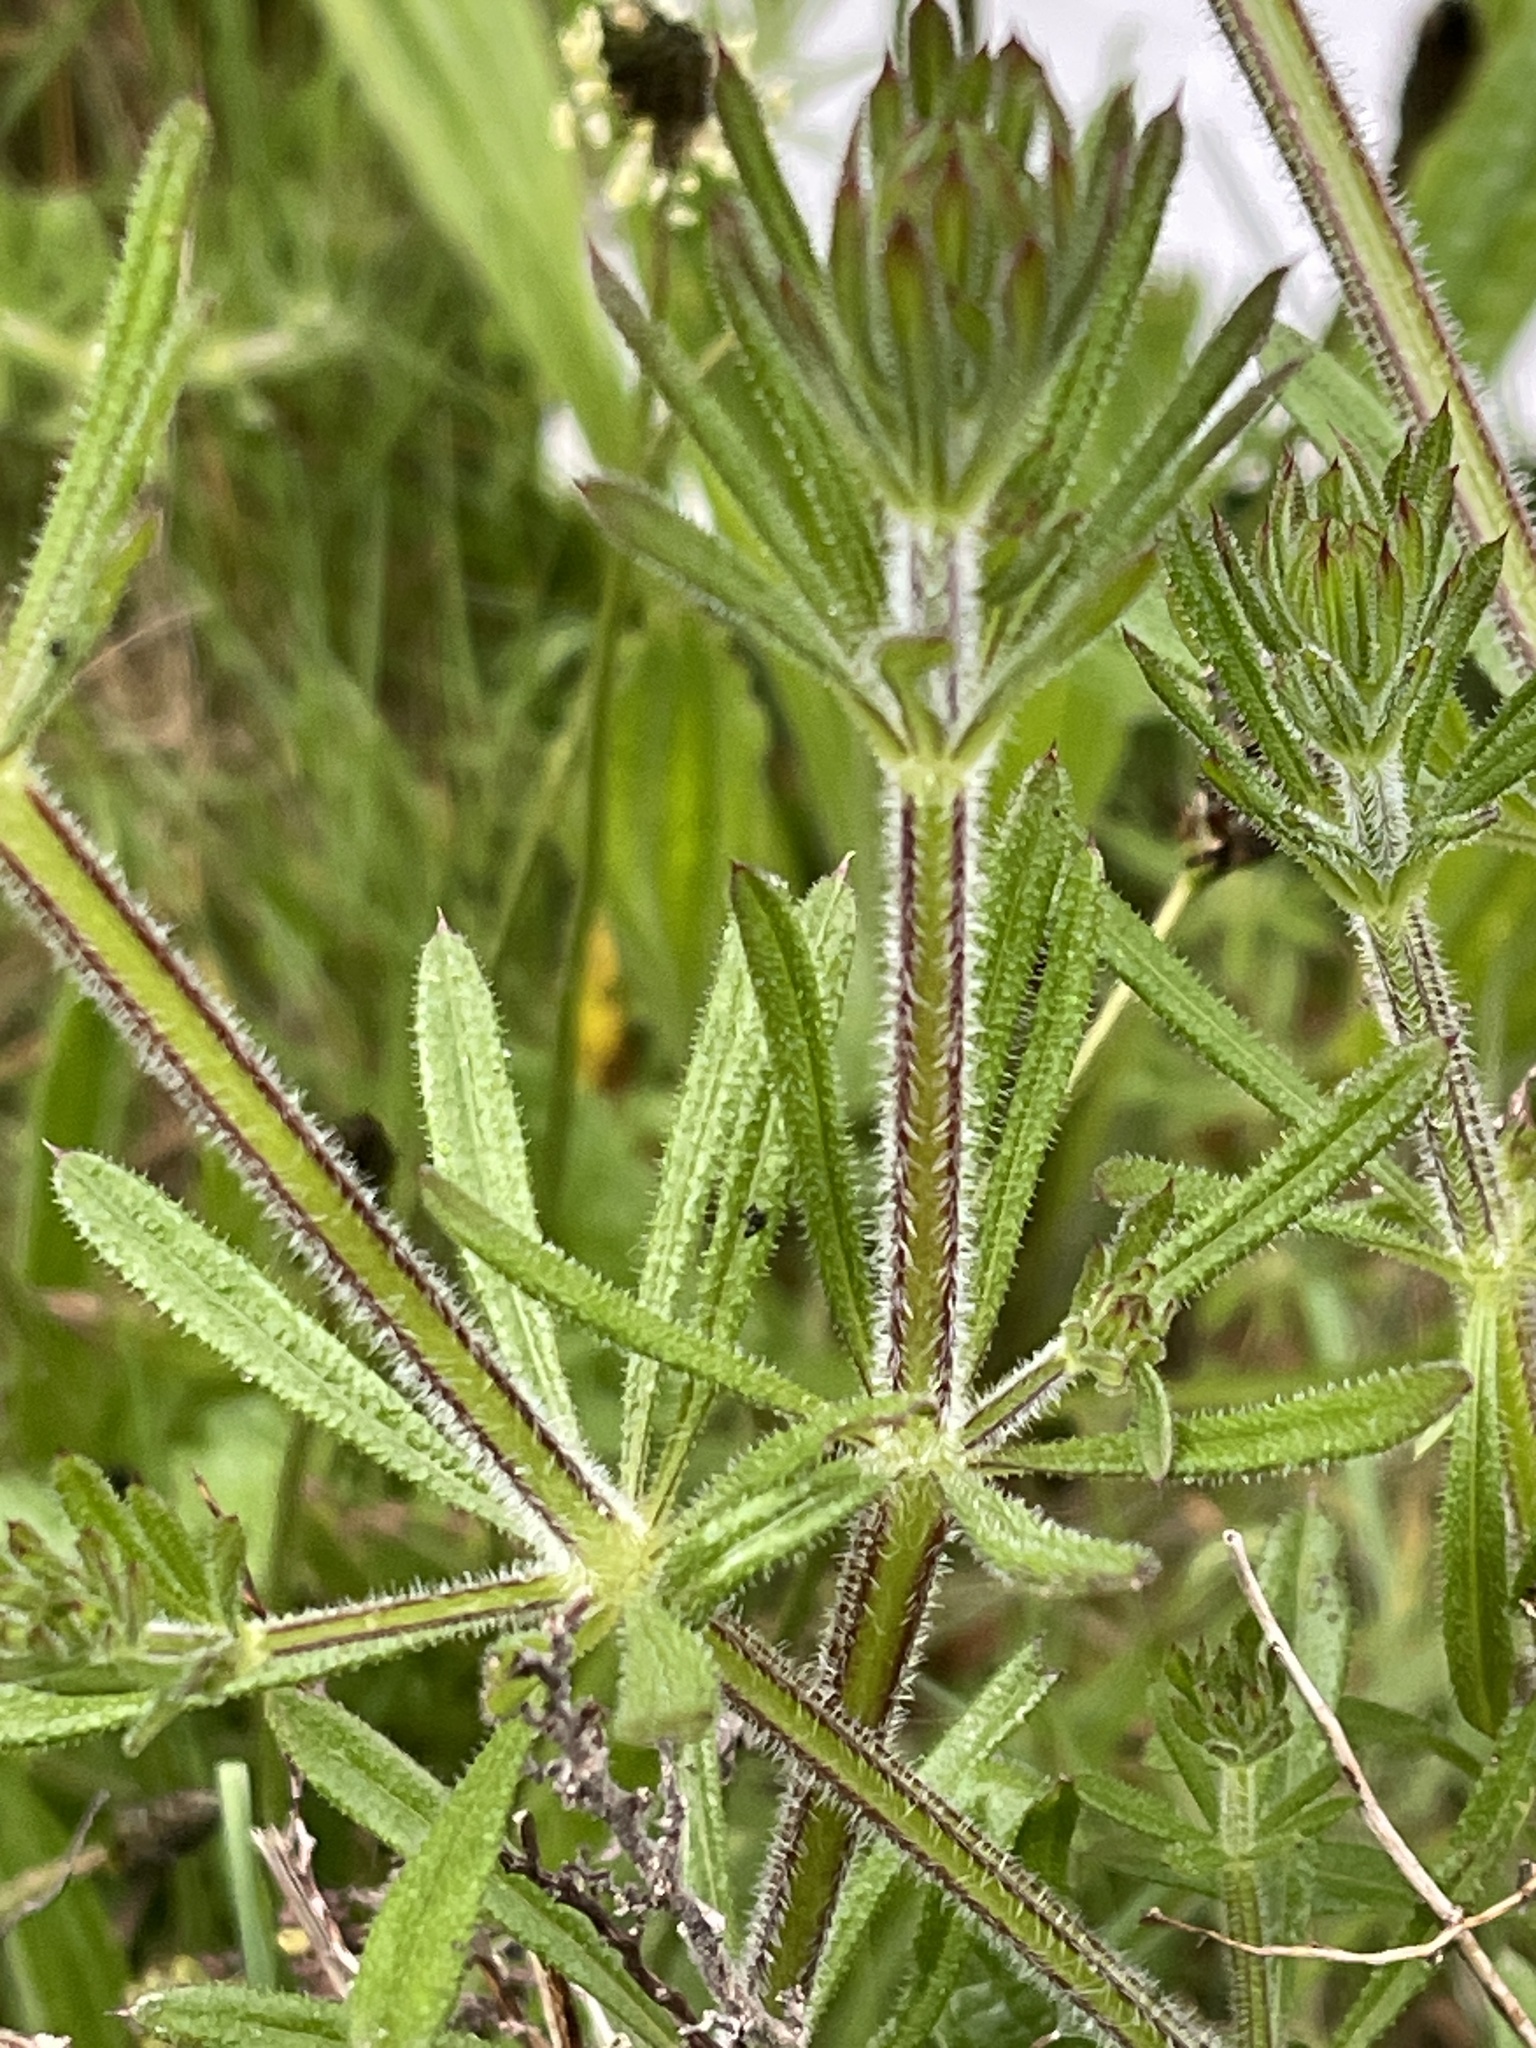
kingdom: Plantae
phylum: Tracheophyta
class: Magnoliopsida
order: Gentianales
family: Rubiaceae
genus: Galium
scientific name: Galium aparine
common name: Cleavers
